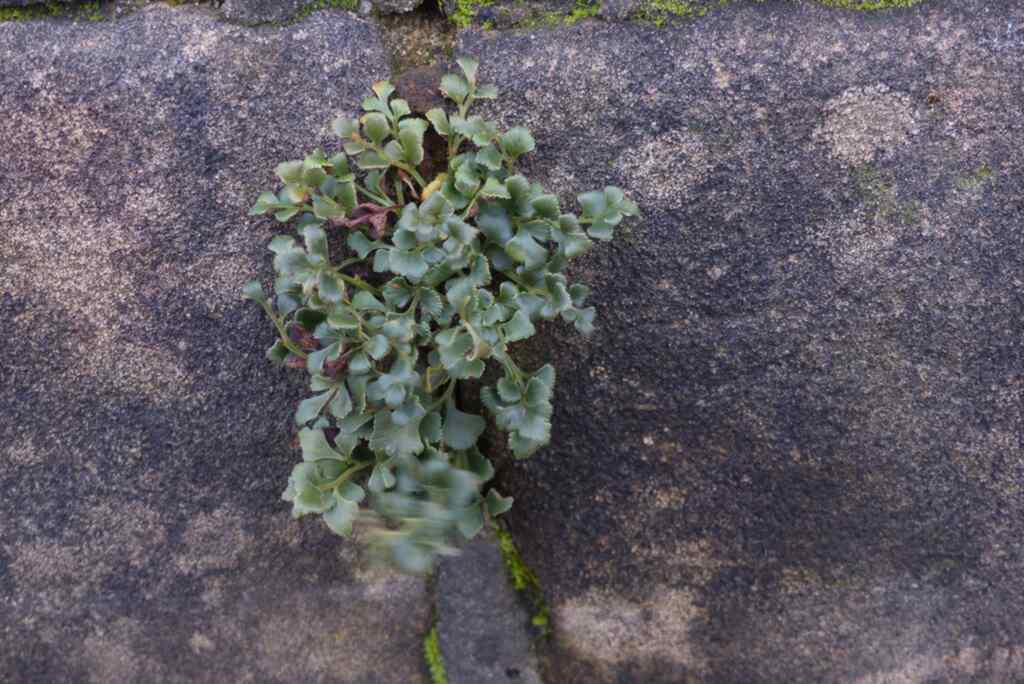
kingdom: Plantae
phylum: Tracheophyta
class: Polypodiopsida
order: Polypodiales
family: Aspleniaceae
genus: Asplenium
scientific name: Asplenium ruta-muraria
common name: Wall-rue
